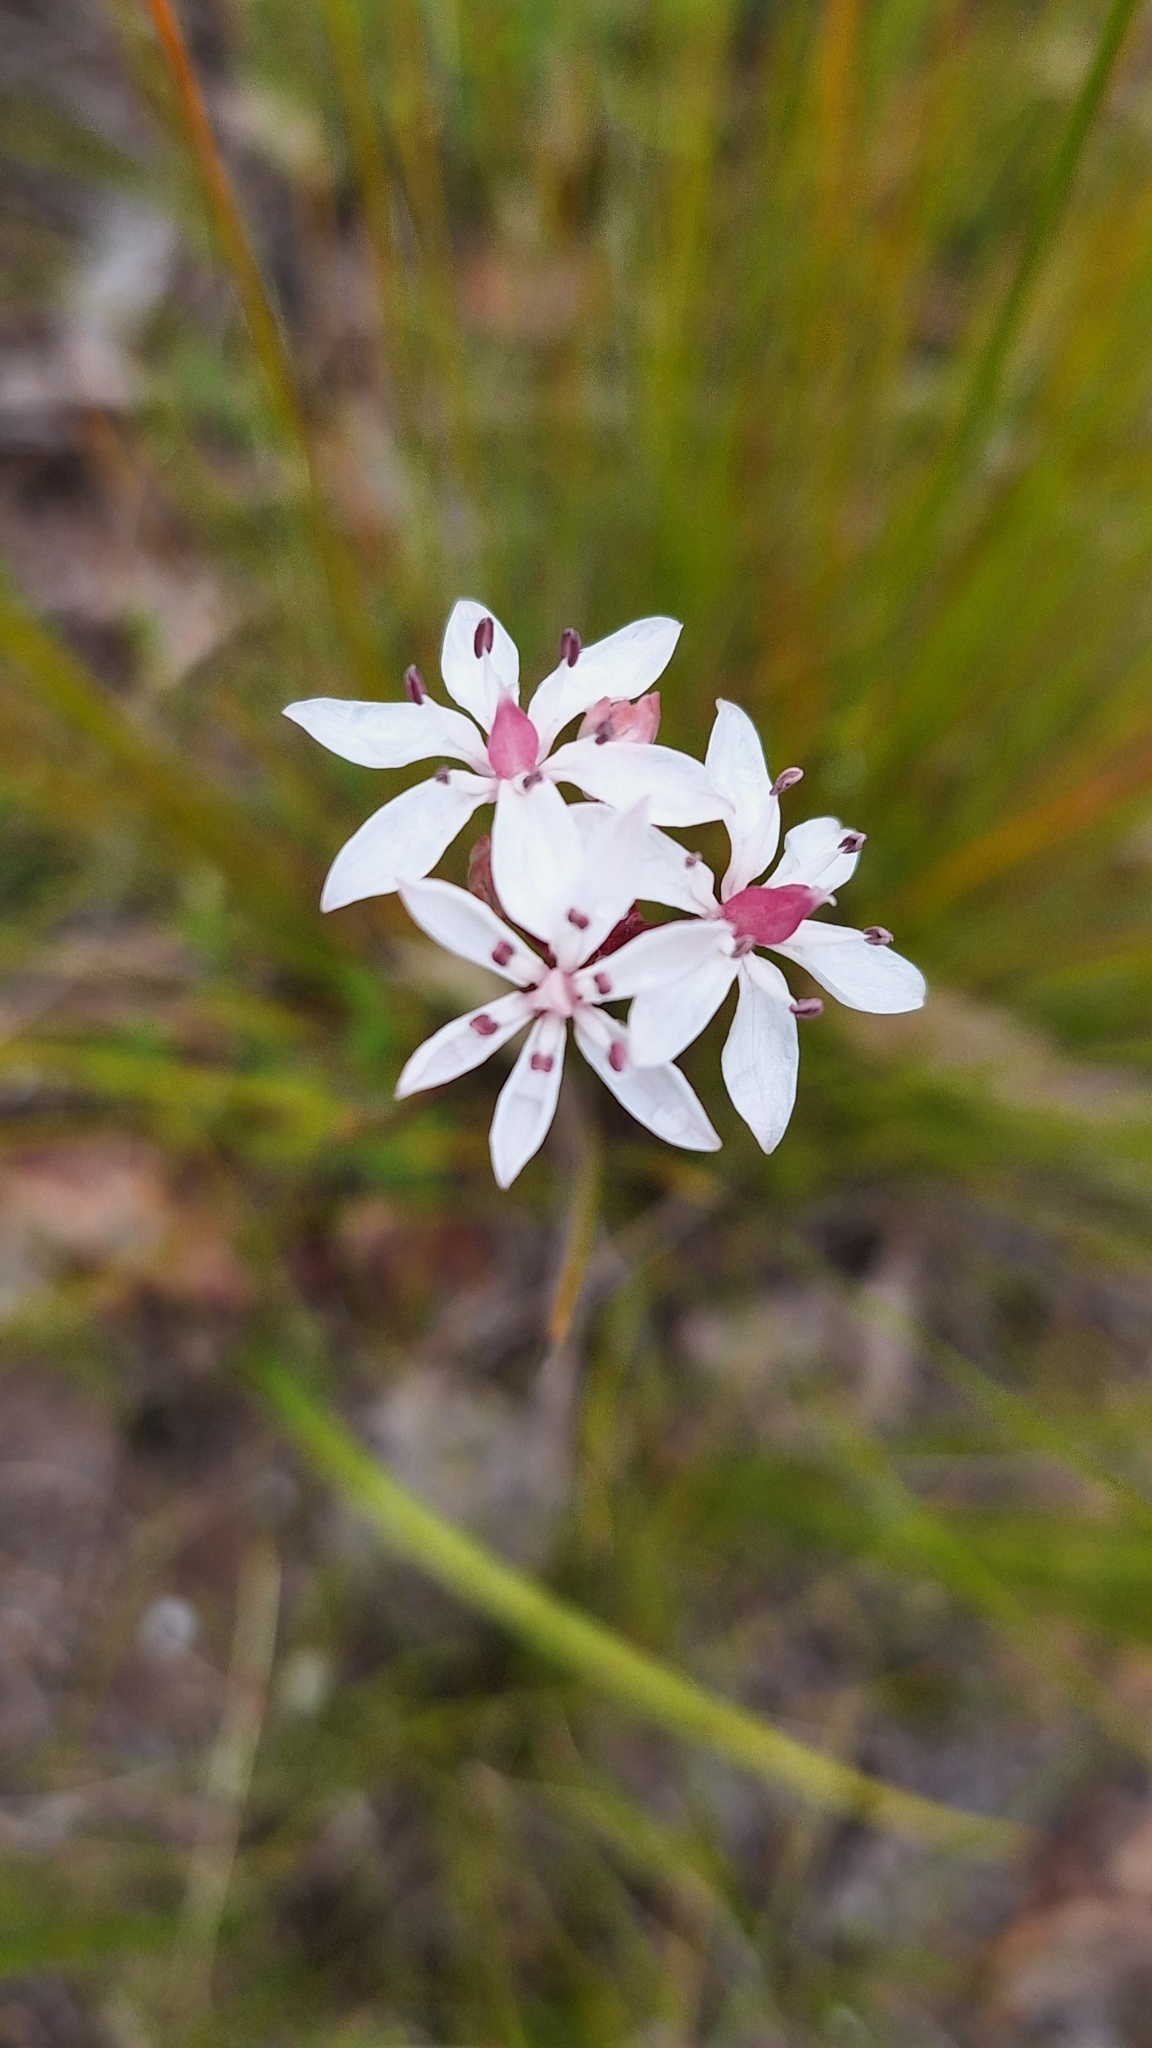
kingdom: Plantae
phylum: Tracheophyta
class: Liliopsida
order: Liliales
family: Colchicaceae
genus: Burchardia
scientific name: Burchardia umbellata
